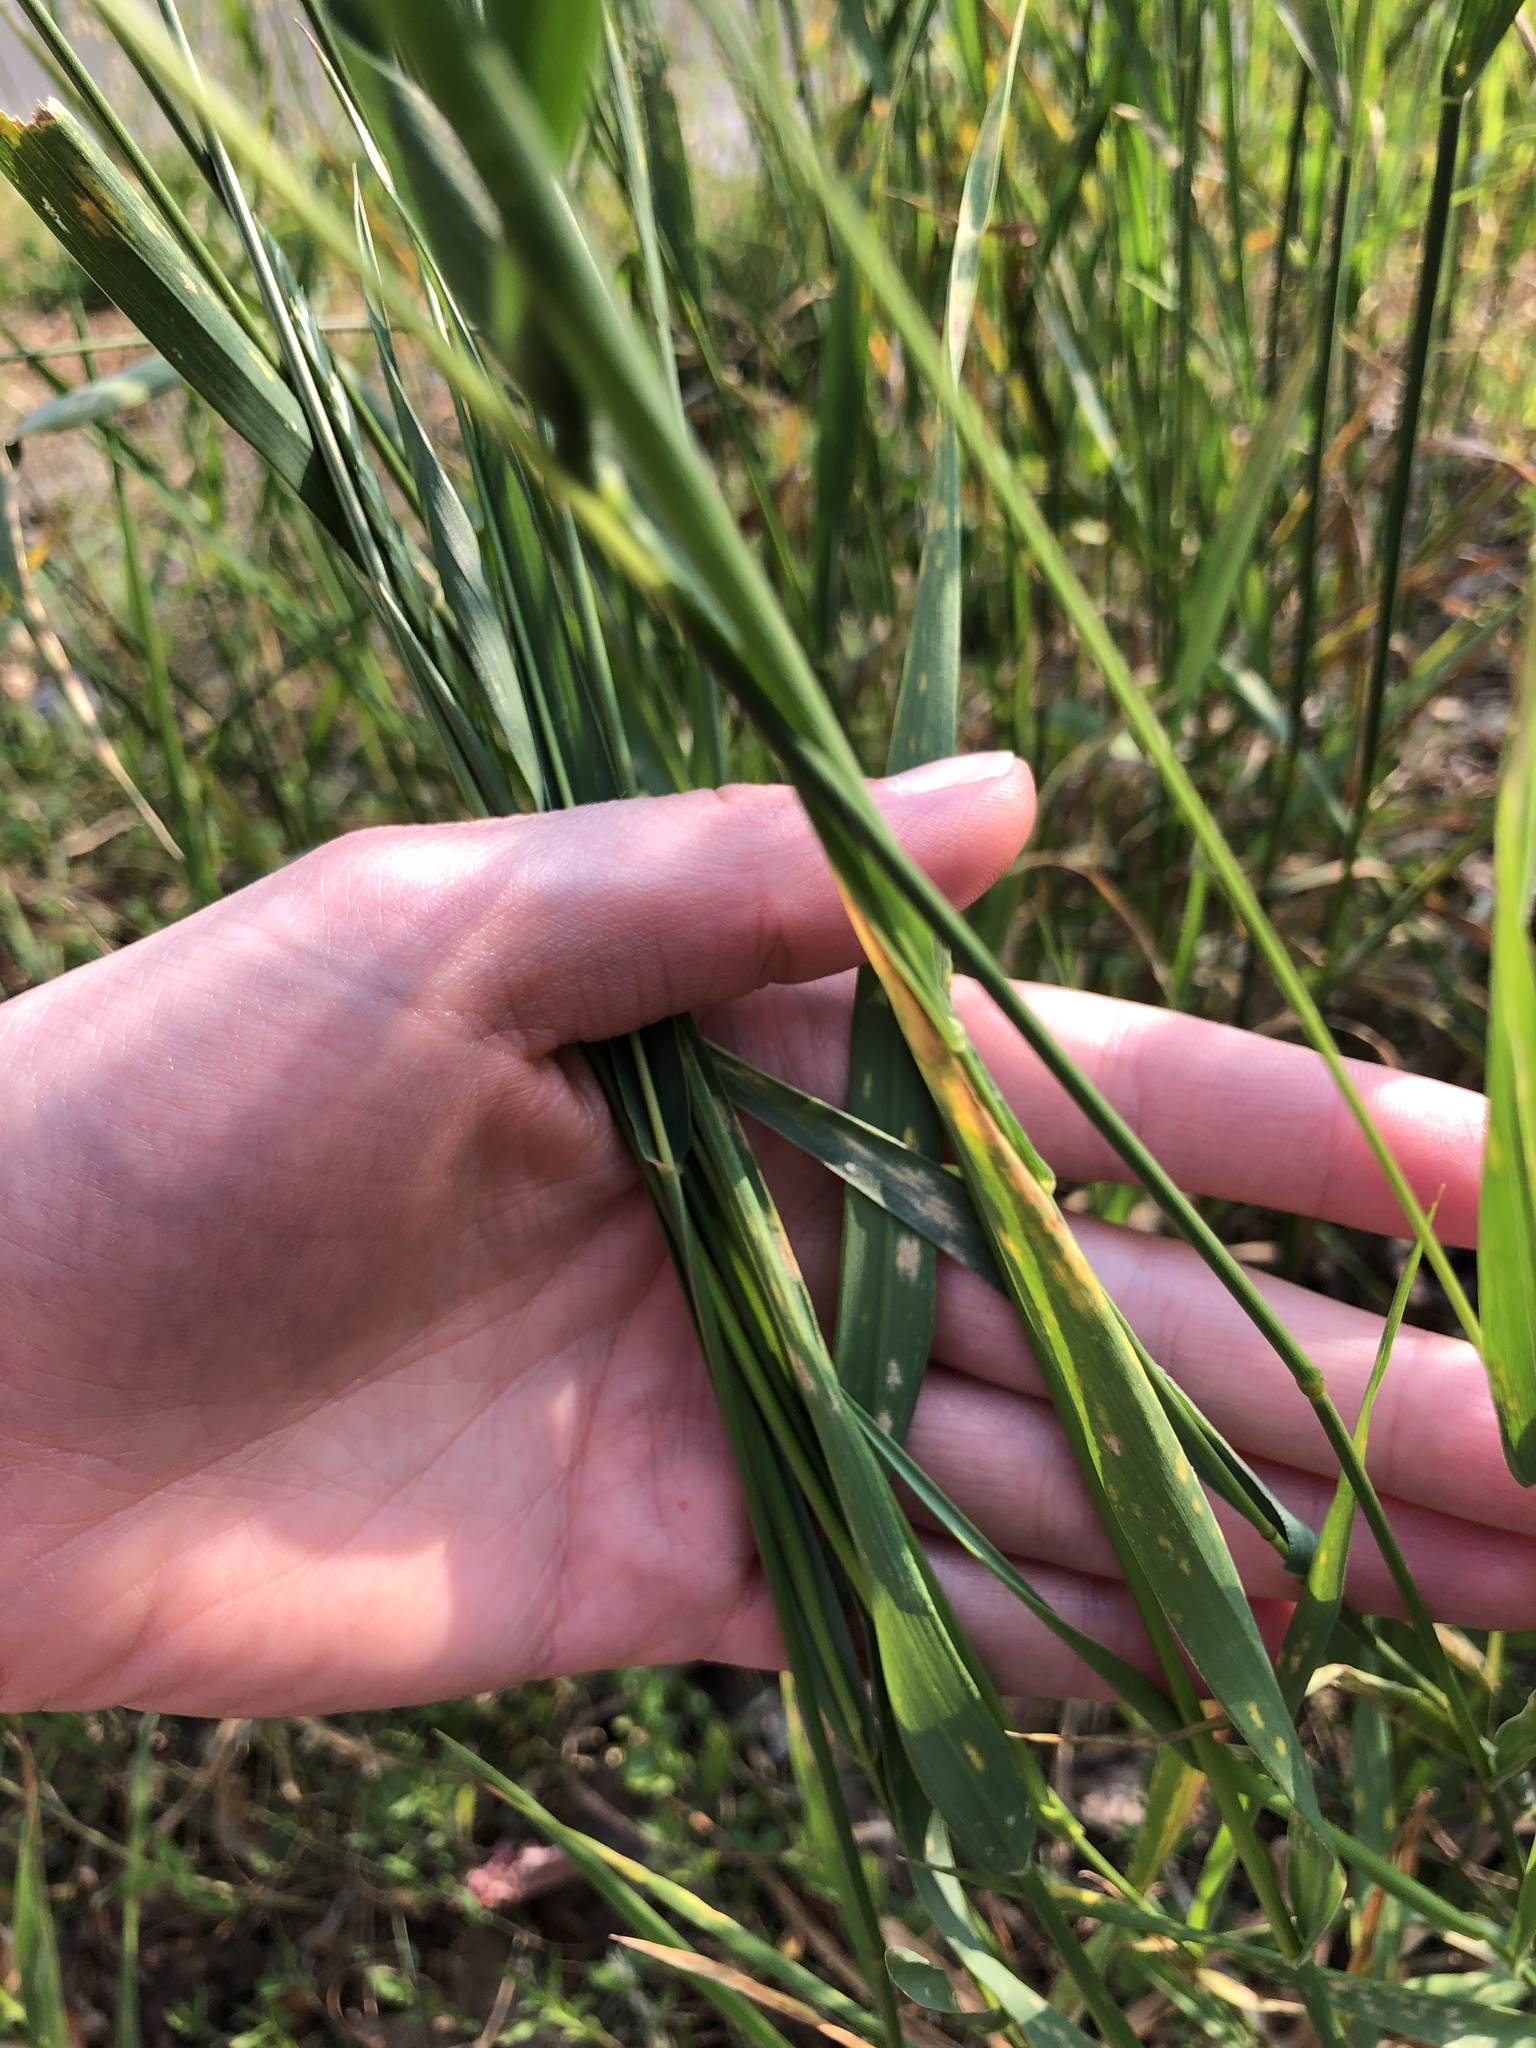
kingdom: Plantae
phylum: Tracheophyta
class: Liliopsida
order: Poales
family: Poaceae
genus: Elymus
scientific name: Elymus repens
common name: Quackgrass
